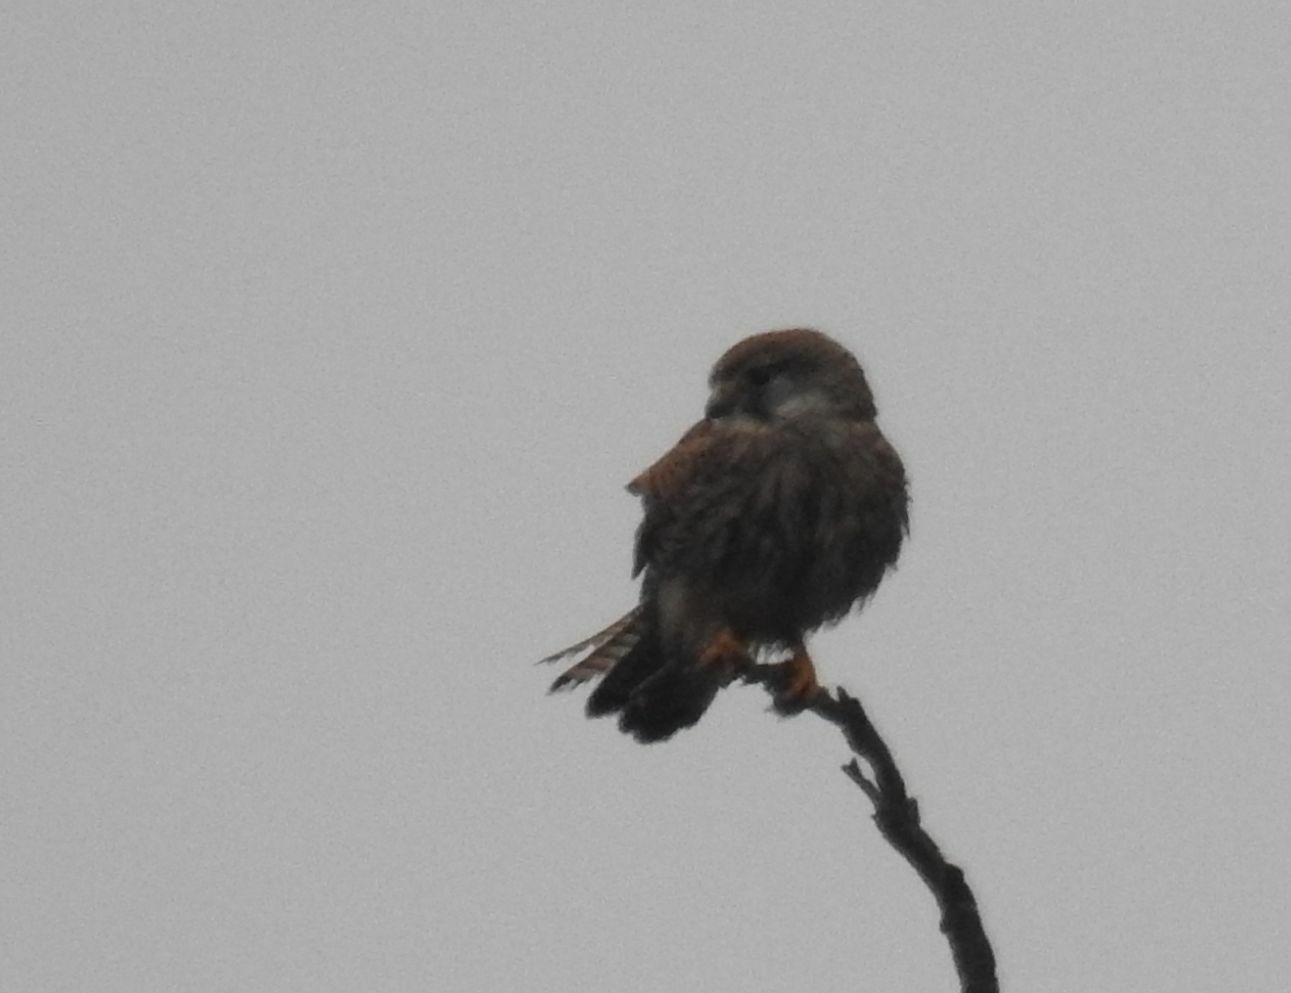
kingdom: Animalia
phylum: Chordata
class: Aves
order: Falconiformes
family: Falconidae
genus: Falco
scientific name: Falco tinnunculus
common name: Common kestrel
